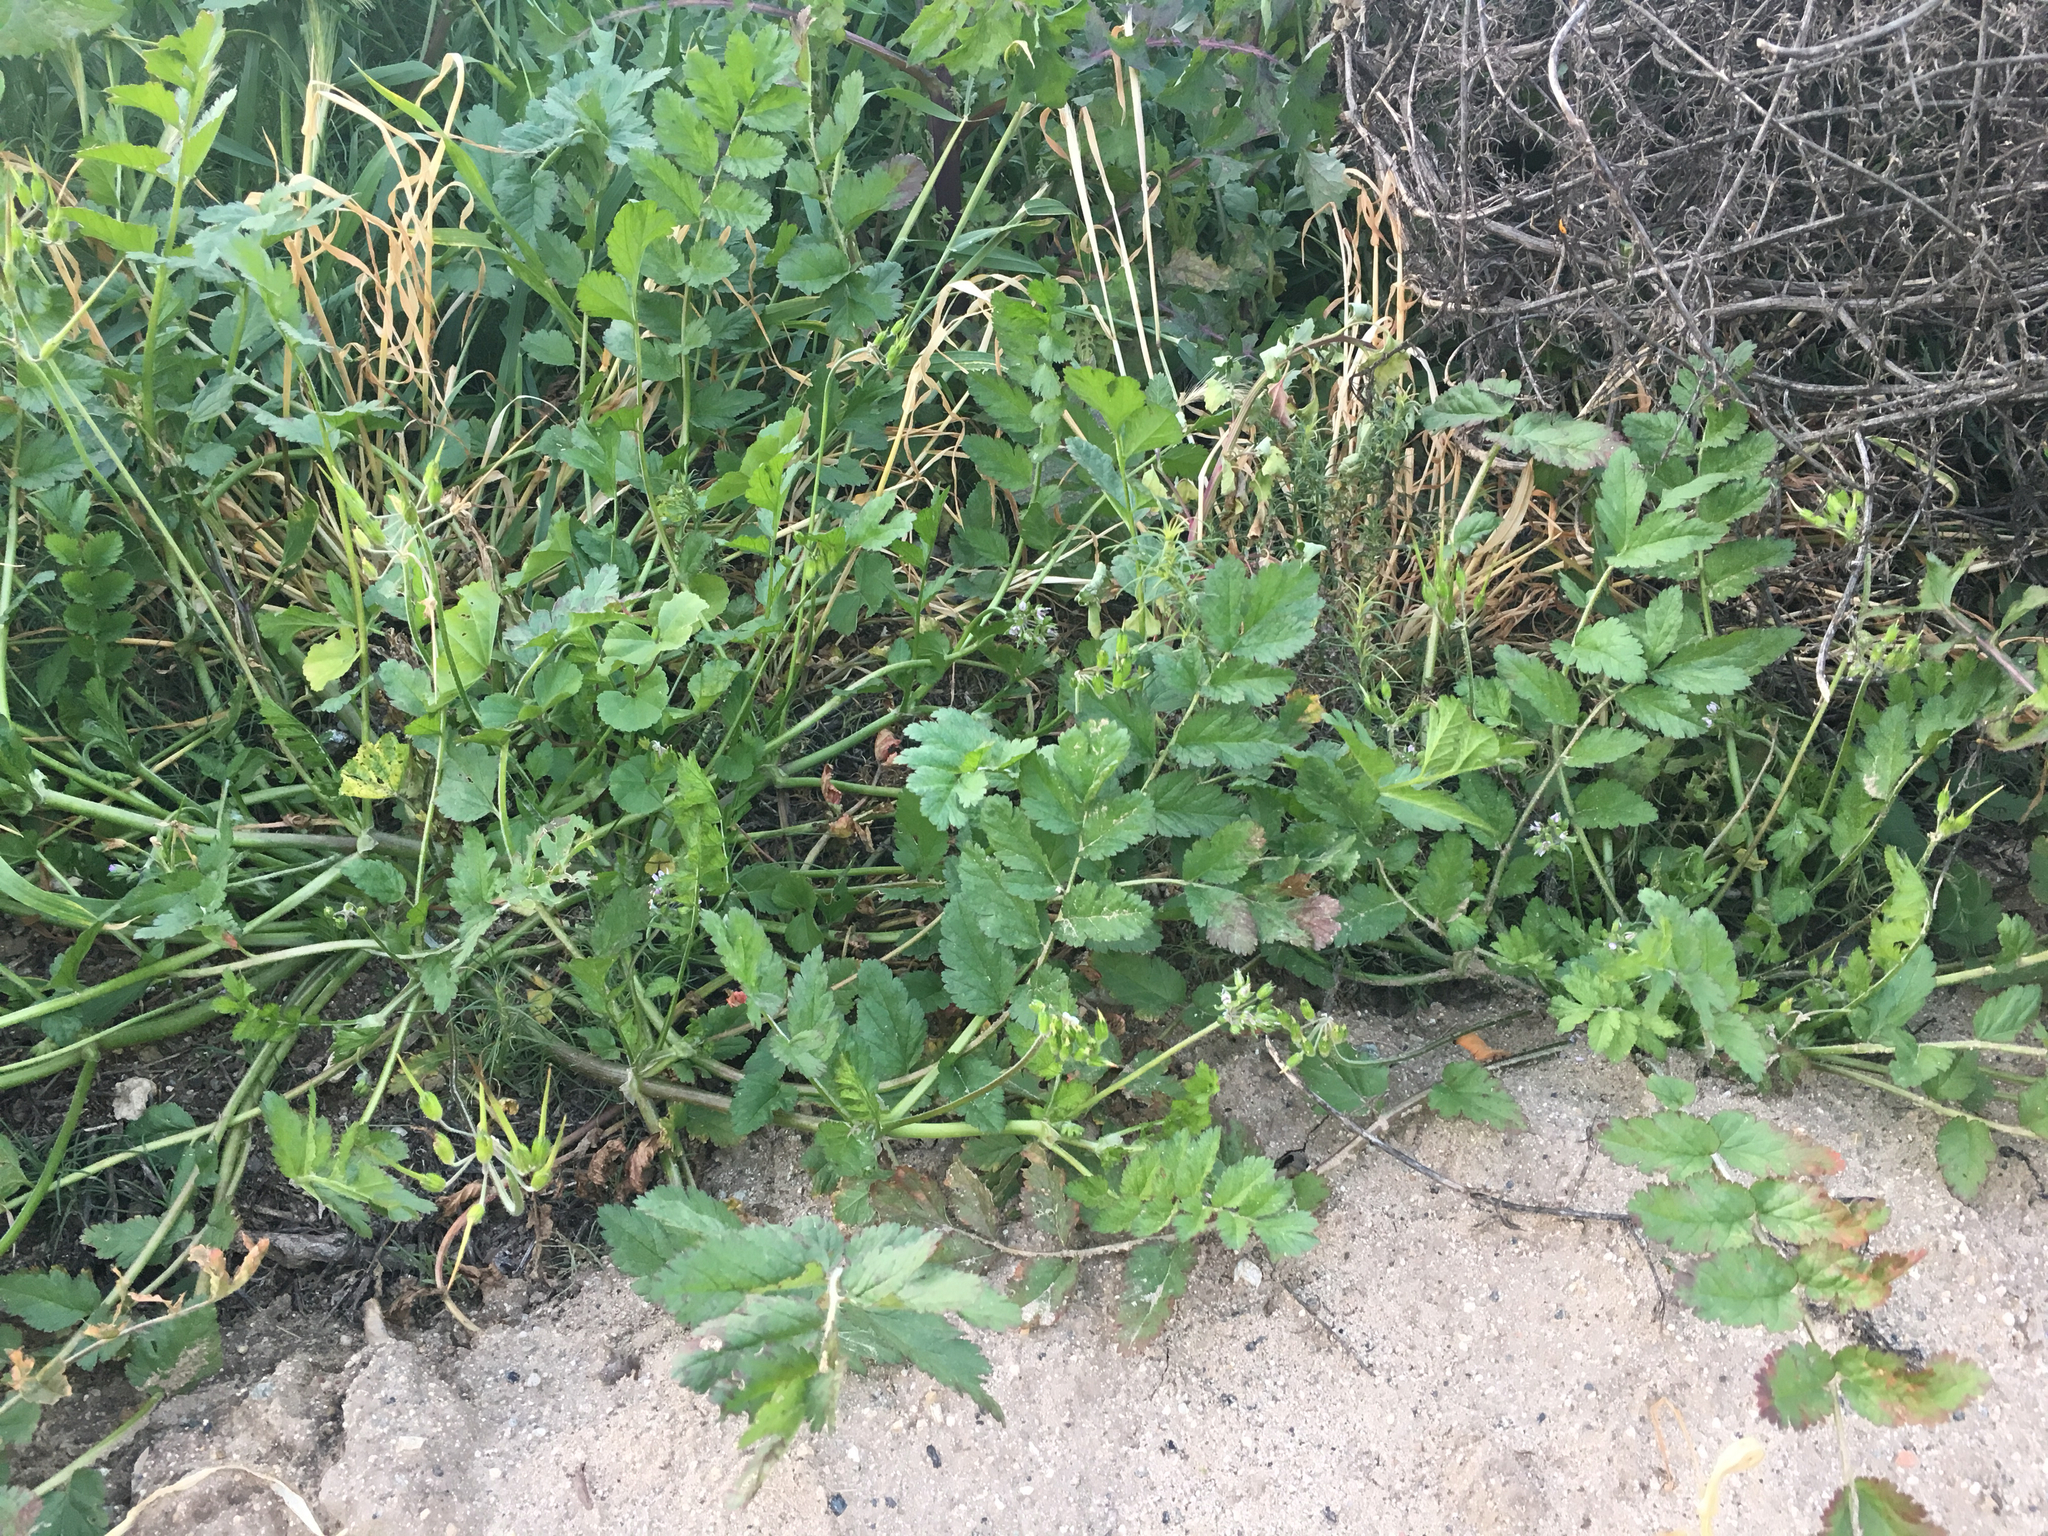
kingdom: Plantae
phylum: Tracheophyta
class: Magnoliopsida
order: Geraniales
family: Geraniaceae
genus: Erodium
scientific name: Erodium moschatum
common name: Musk stork's-bill
